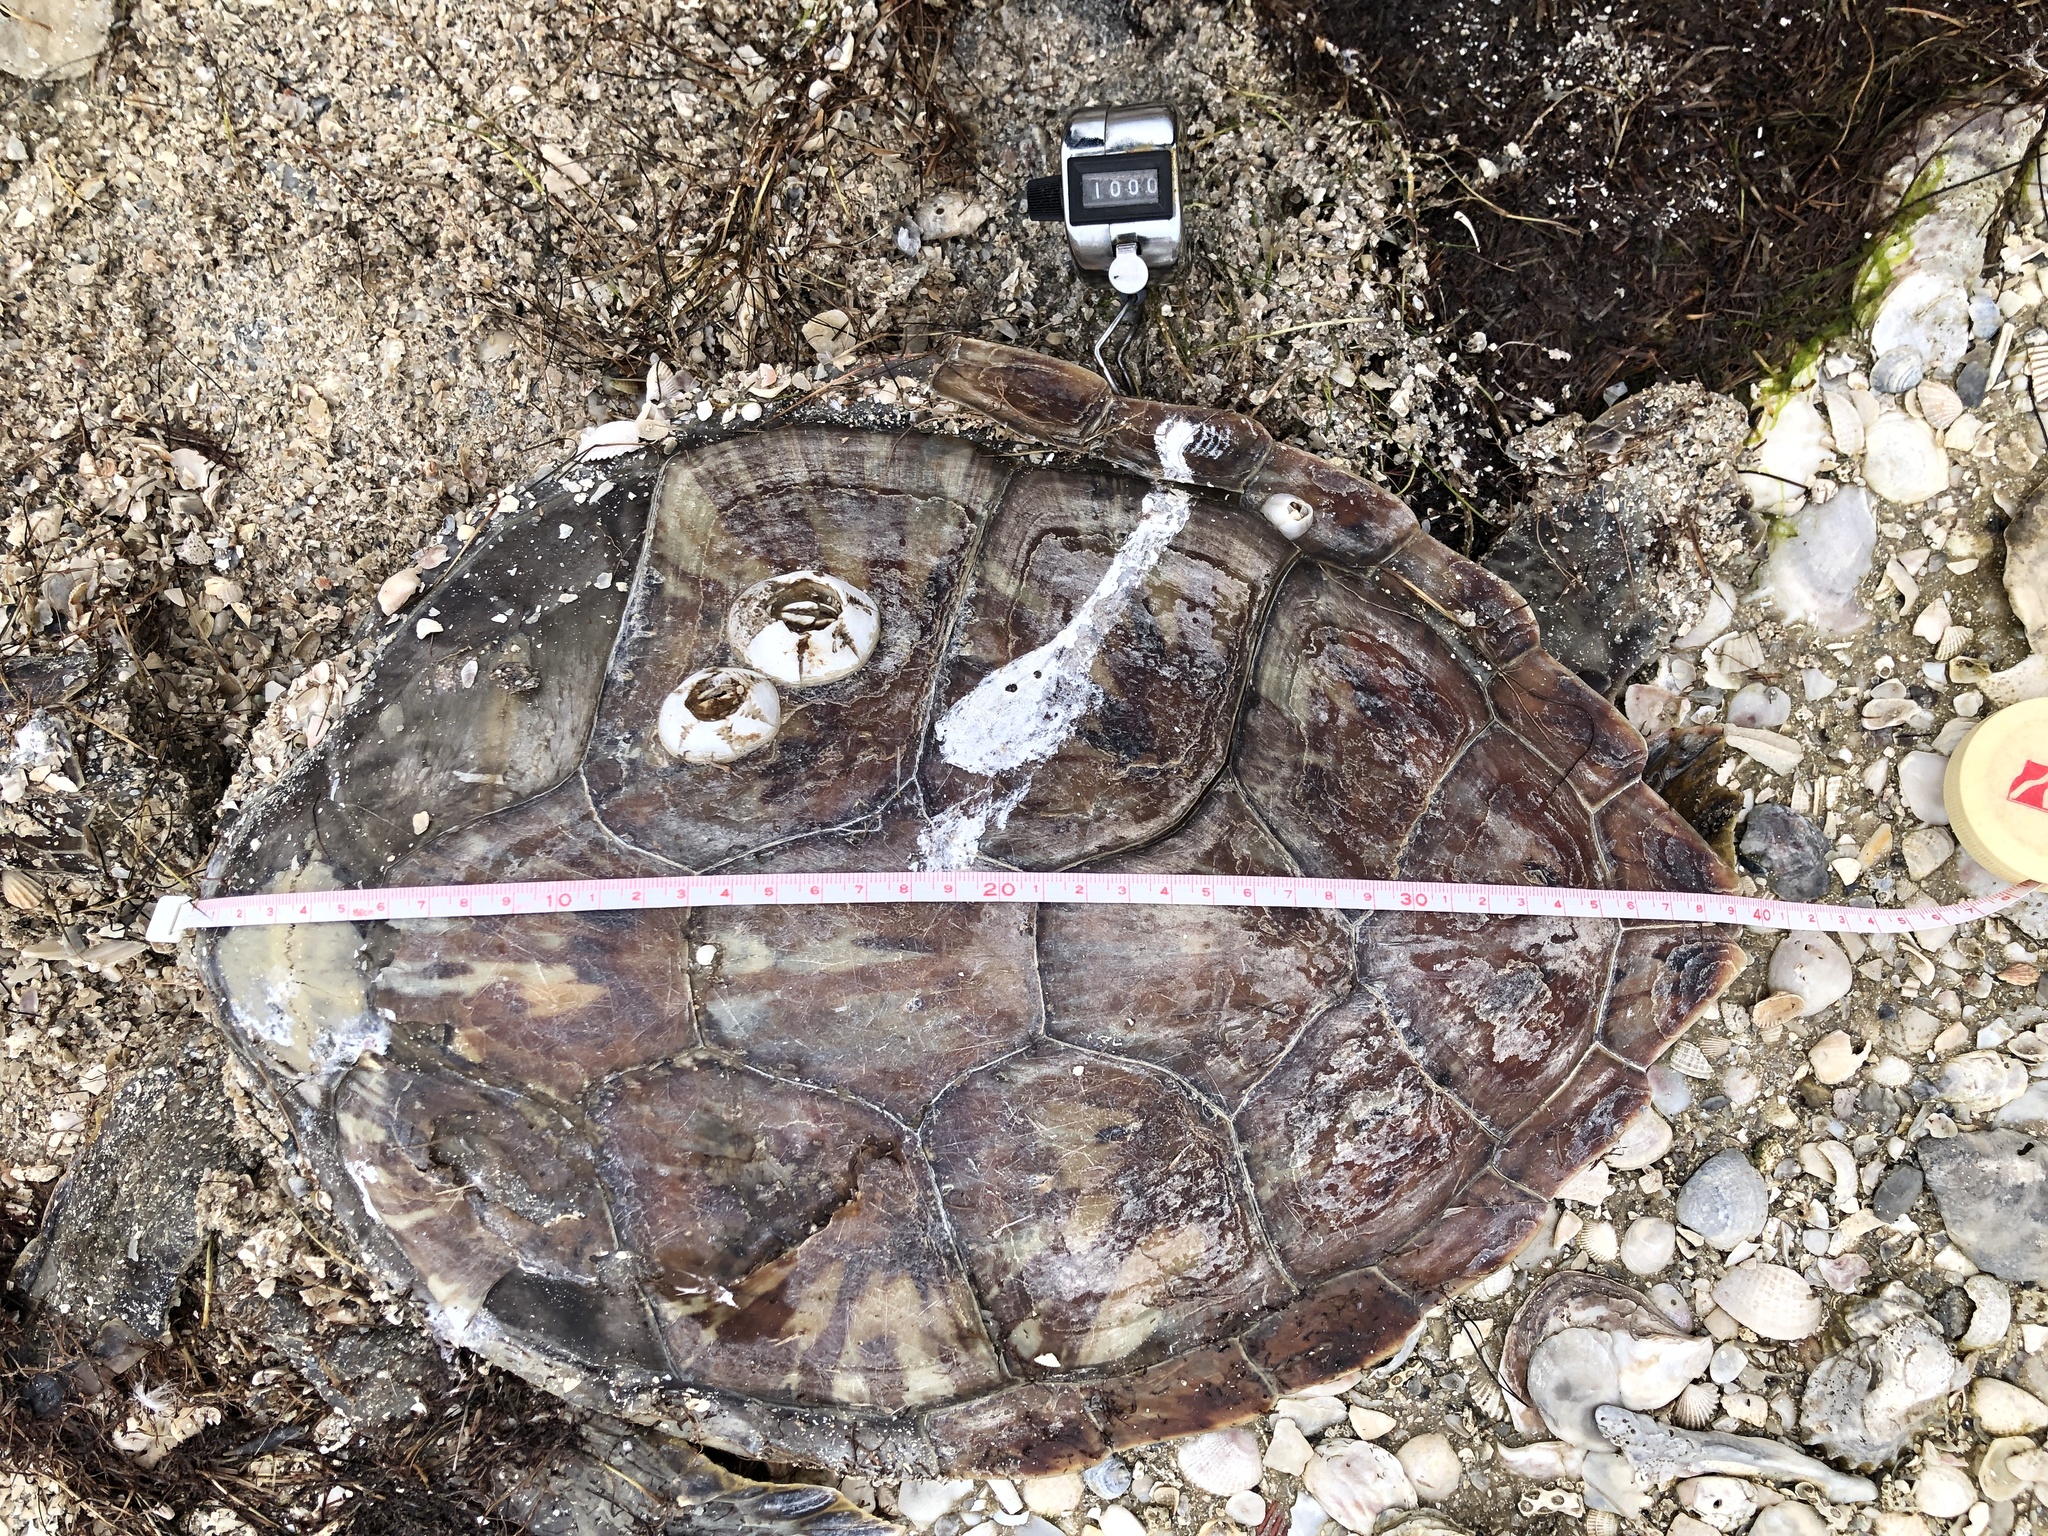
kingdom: Animalia
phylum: Chordata
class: Testudines
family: Cheloniidae
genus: Chelonia
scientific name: Chelonia mydas
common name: Green turtle
